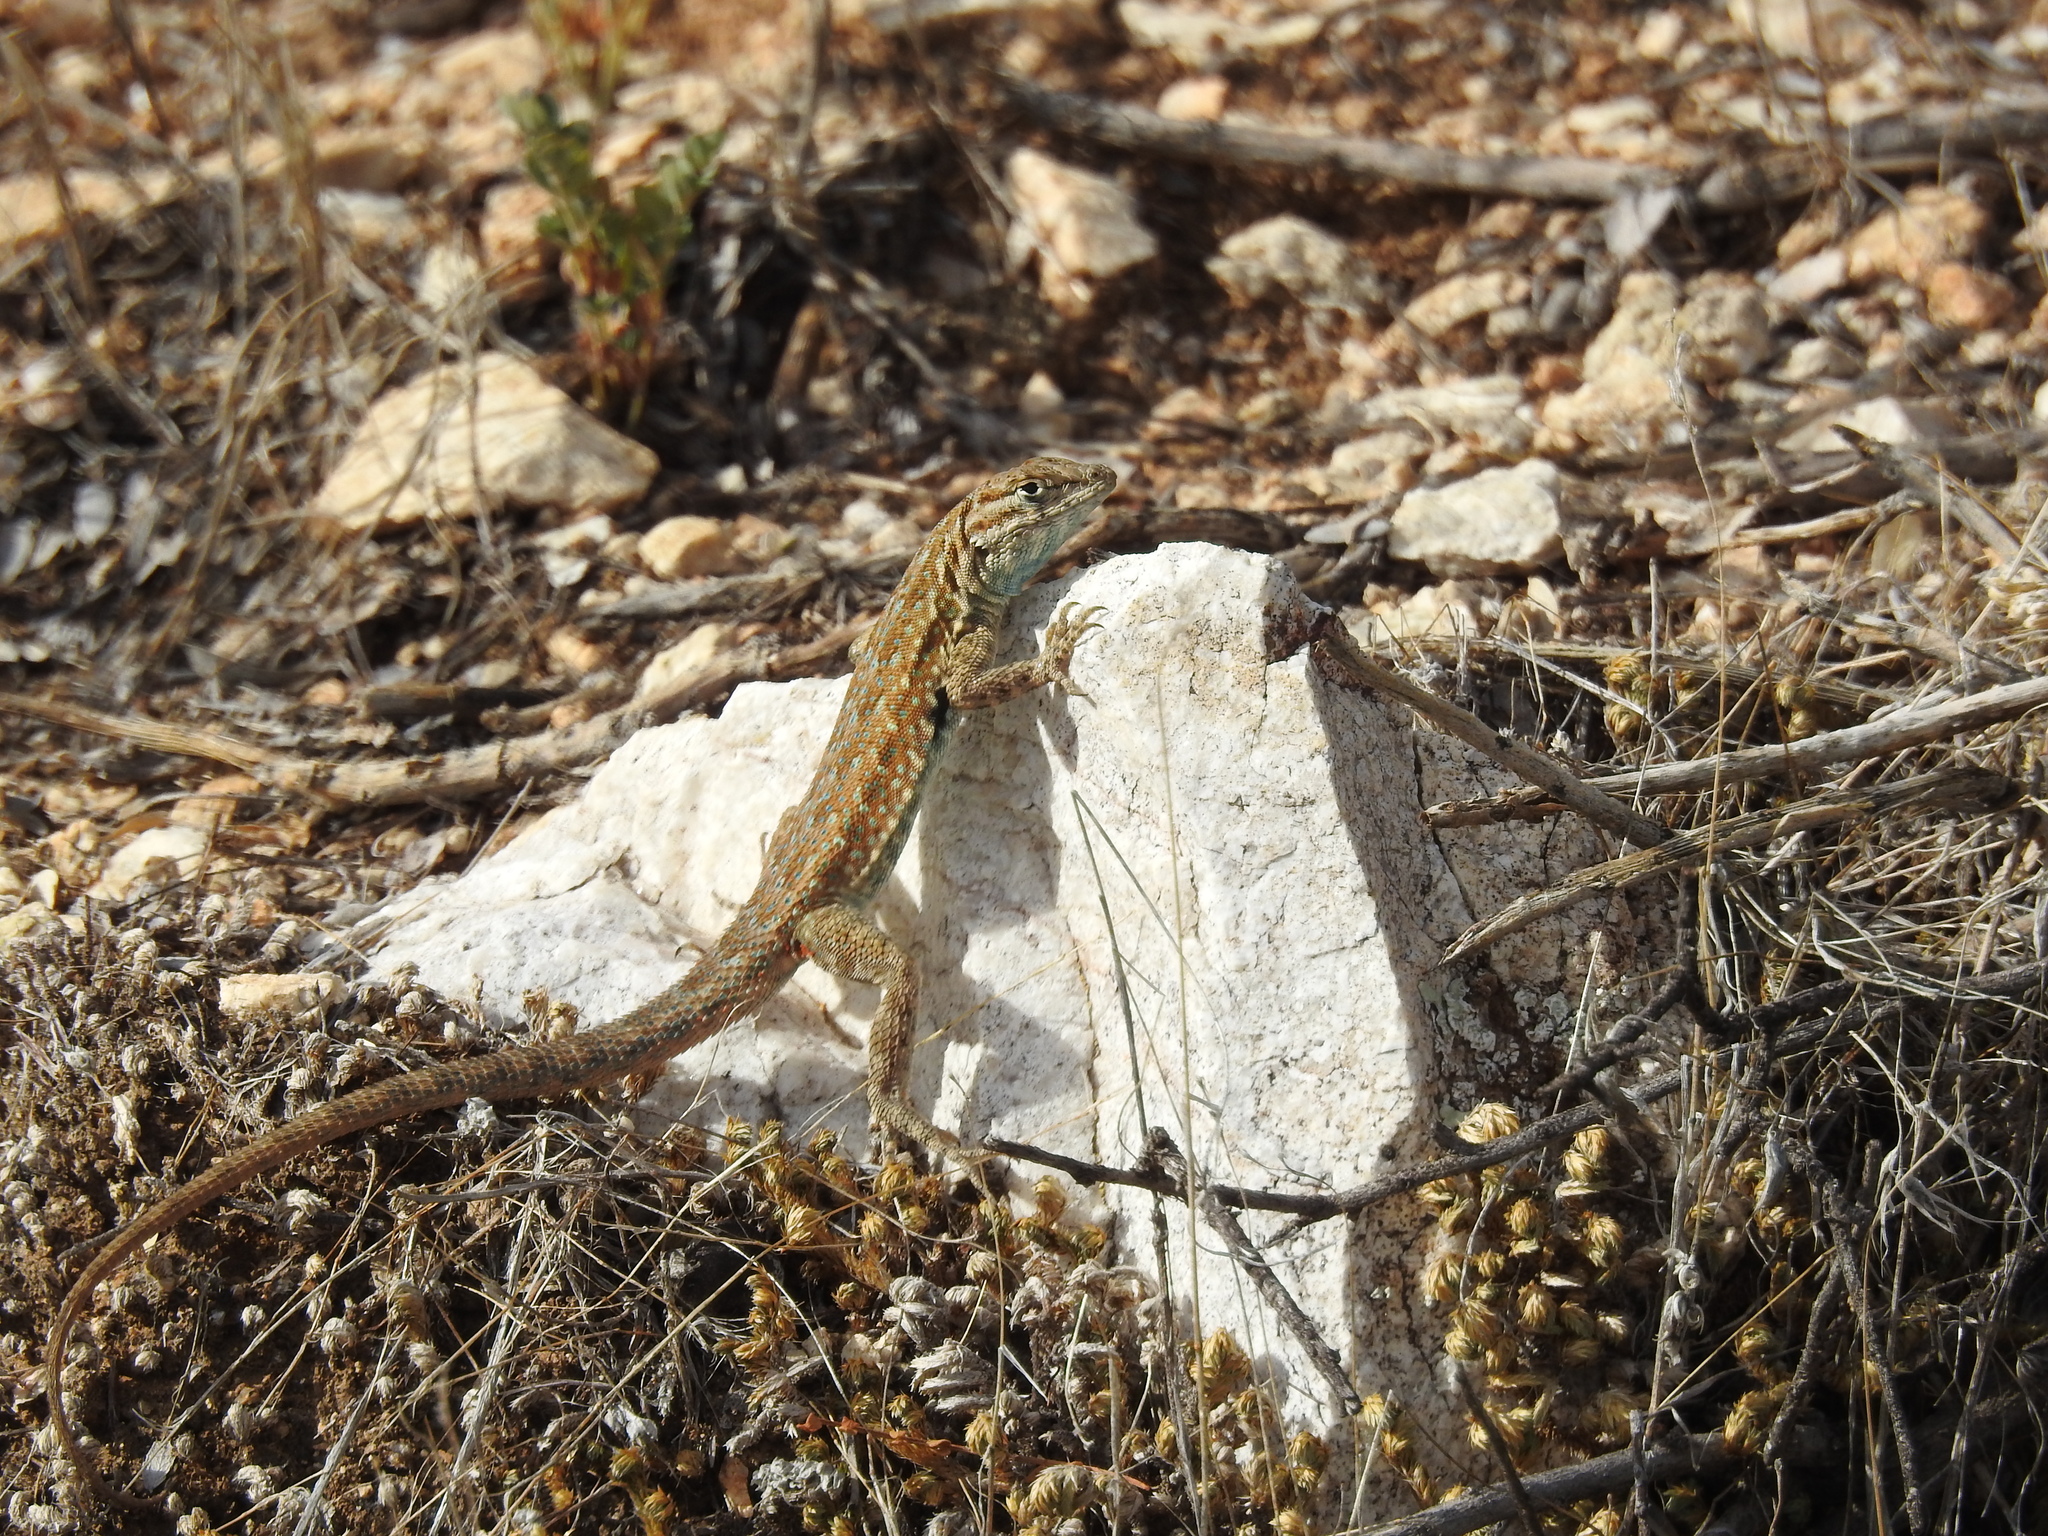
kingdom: Animalia
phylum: Chordata
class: Squamata
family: Phrynosomatidae
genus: Uta
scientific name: Uta stansburiana
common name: Side-blotched lizard
